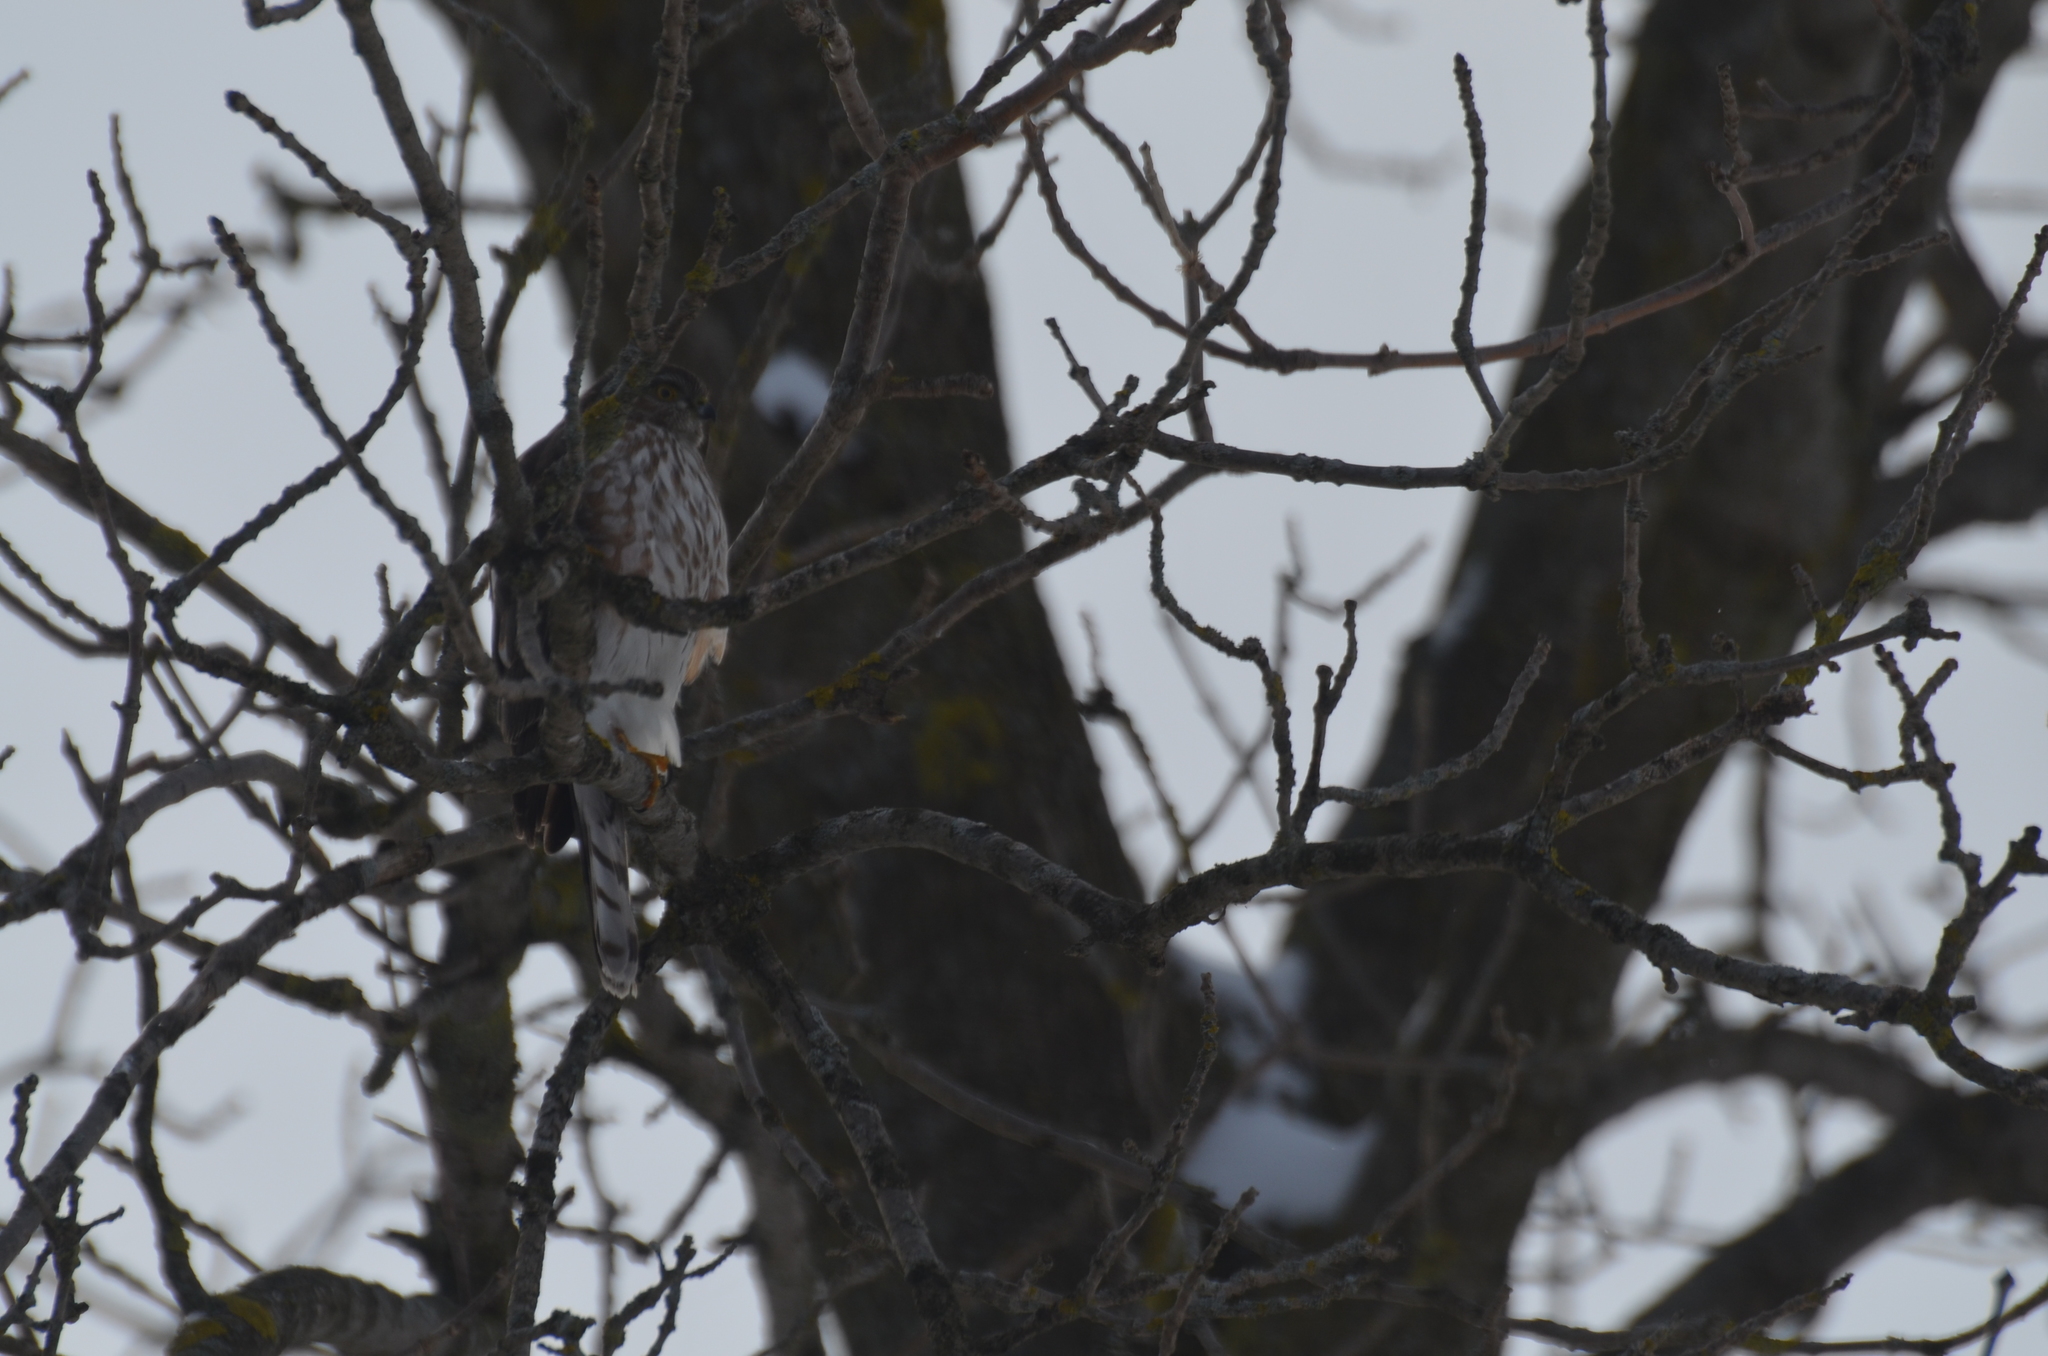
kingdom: Animalia
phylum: Chordata
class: Aves
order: Accipitriformes
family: Accipitridae
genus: Accipiter
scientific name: Accipiter striatus
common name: Sharp-shinned hawk
